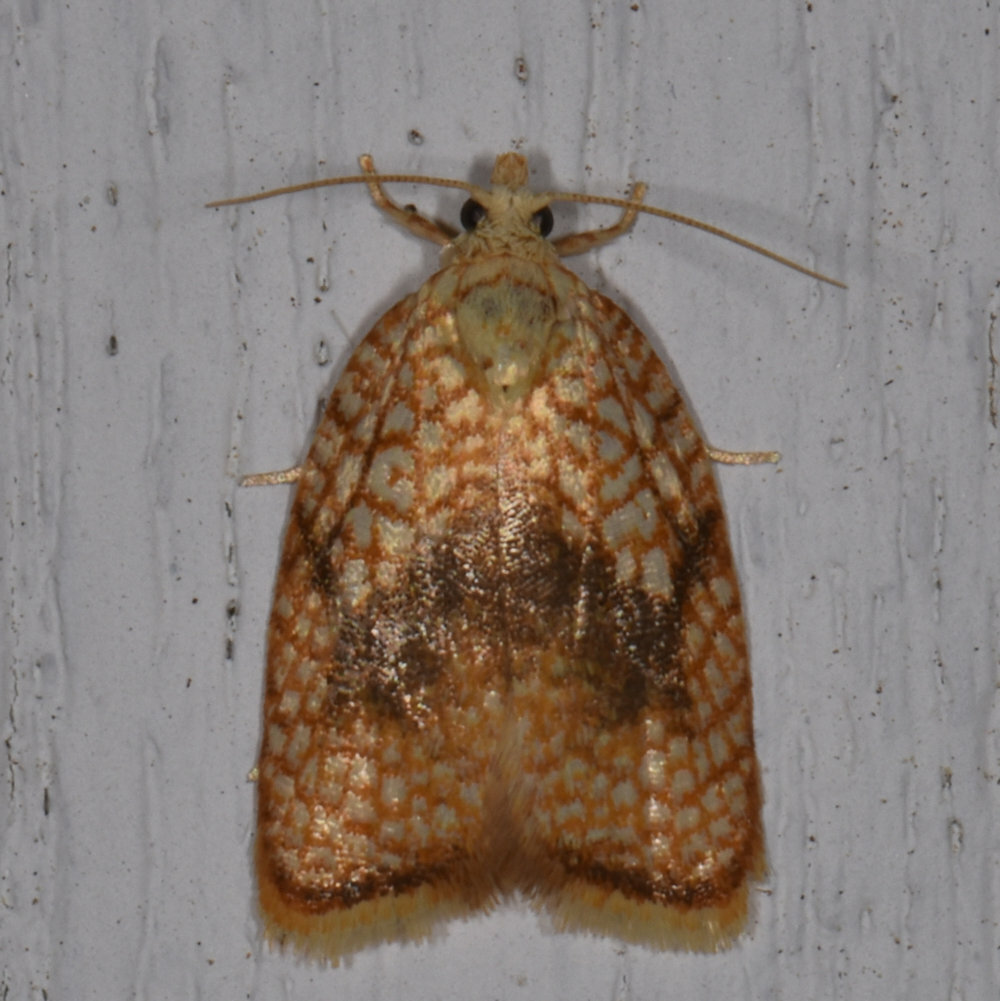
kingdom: Animalia
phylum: Arthropoda
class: Insecta
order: Lepidoptera
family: Tortricidae
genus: Acleris
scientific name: Acleris forsskaleana
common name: Maple button
